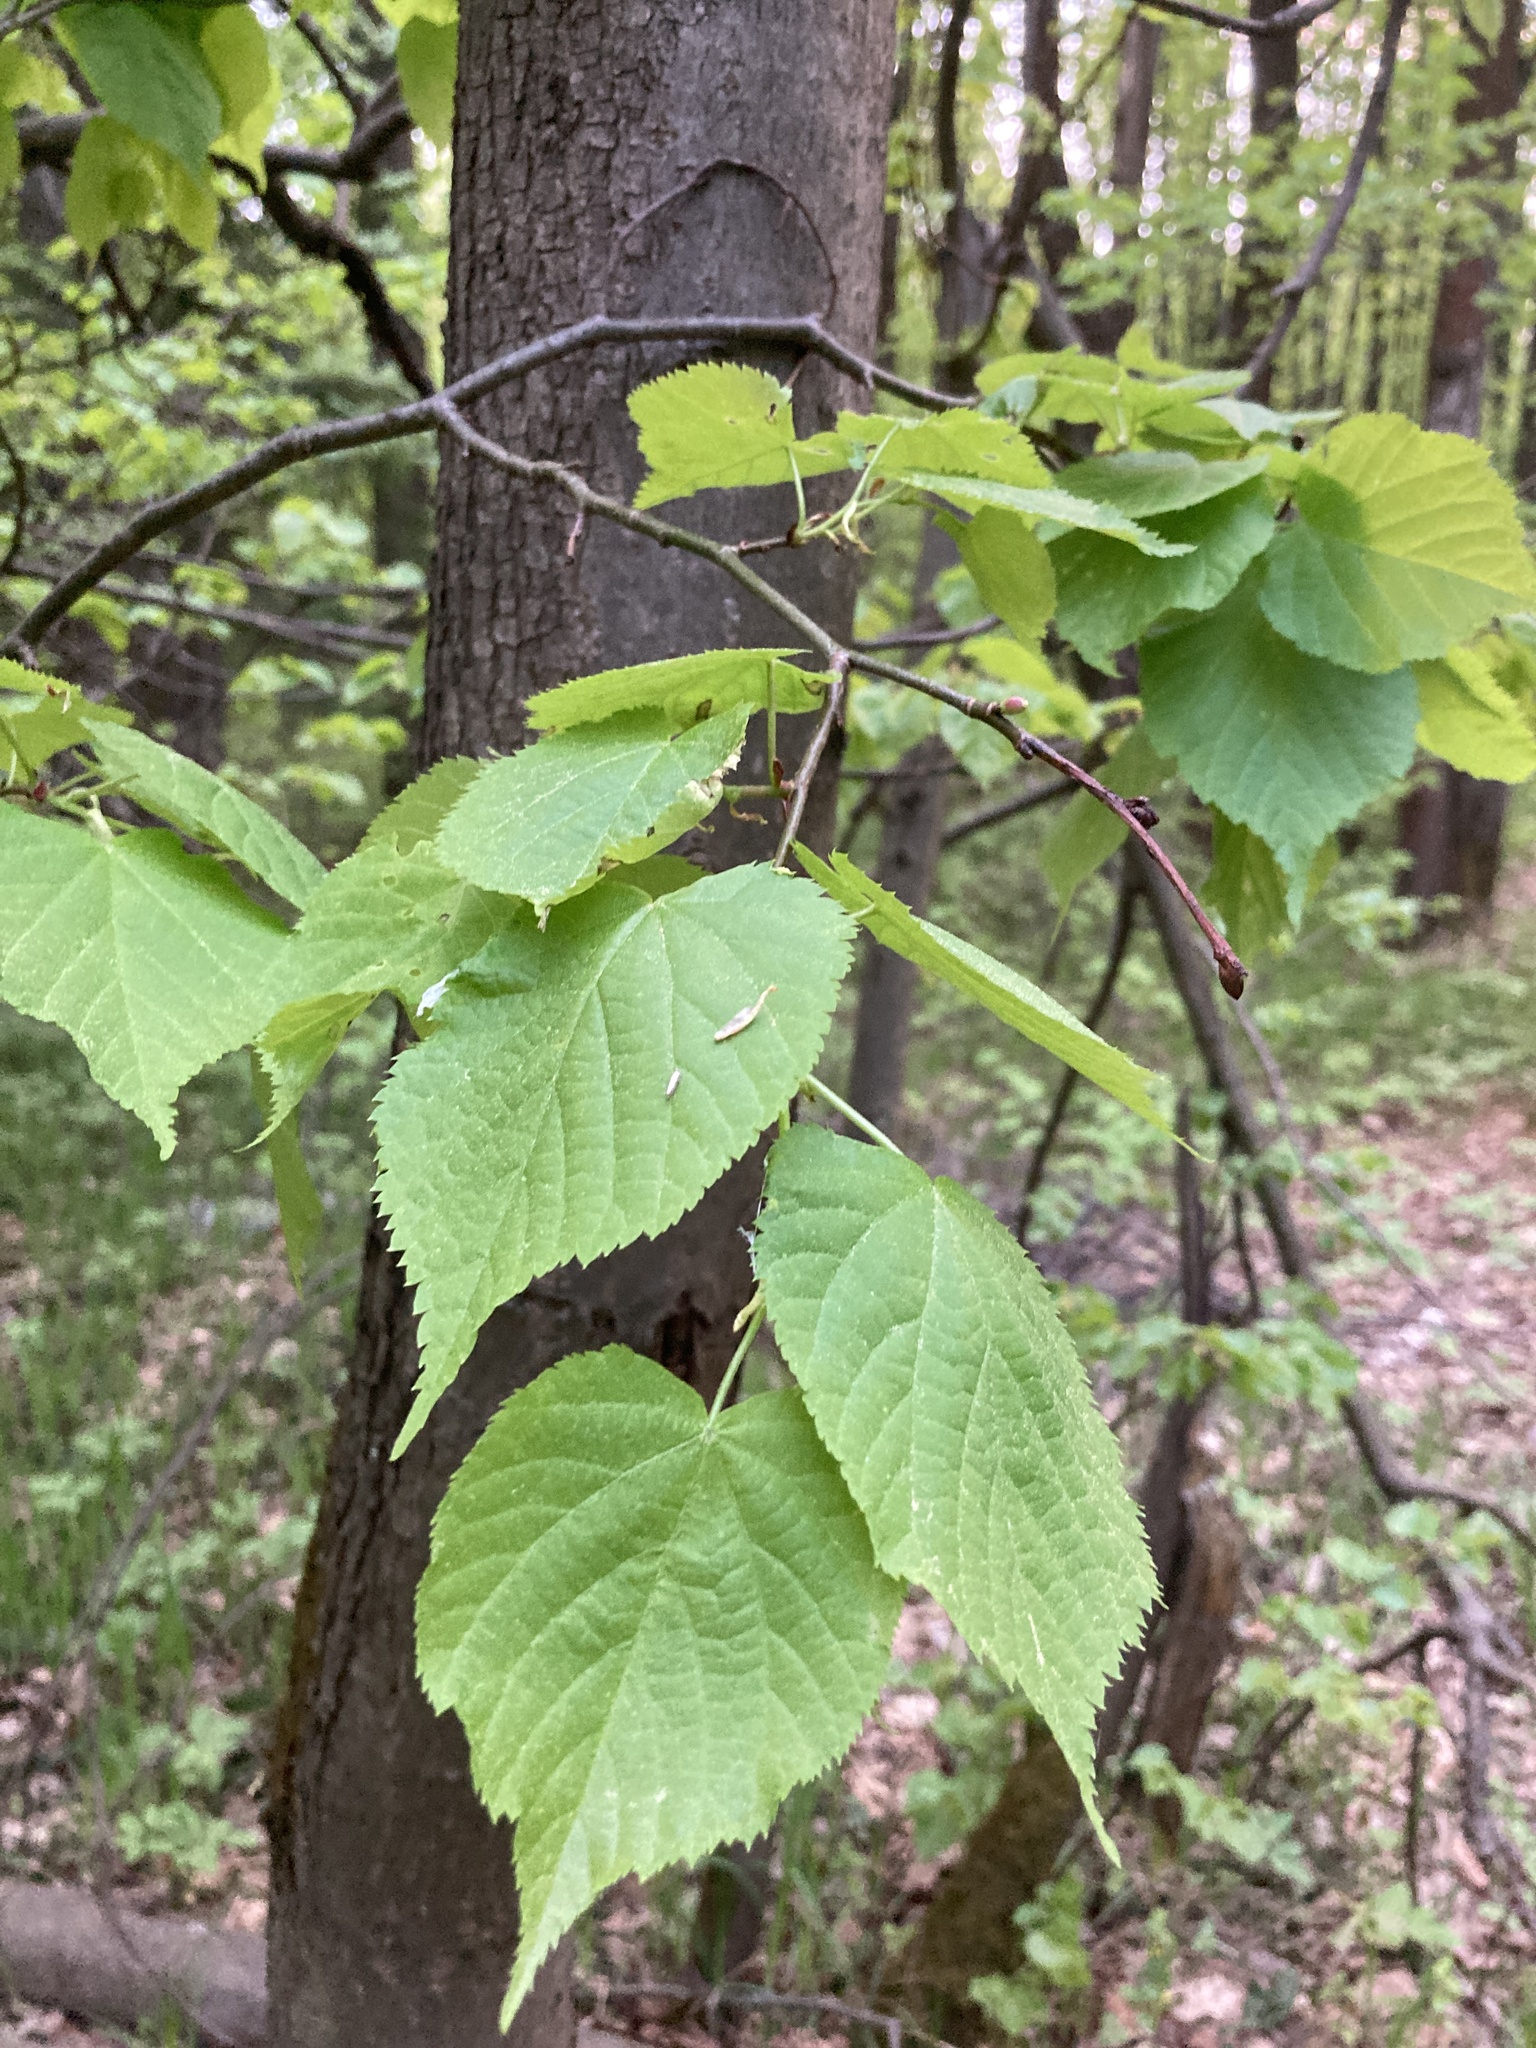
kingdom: Plantae
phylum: Tracheophyta
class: Magnoliopsida
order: Malvales
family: Malvaceae
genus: Tilia
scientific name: Tilia cordata
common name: Small-leaved lime
